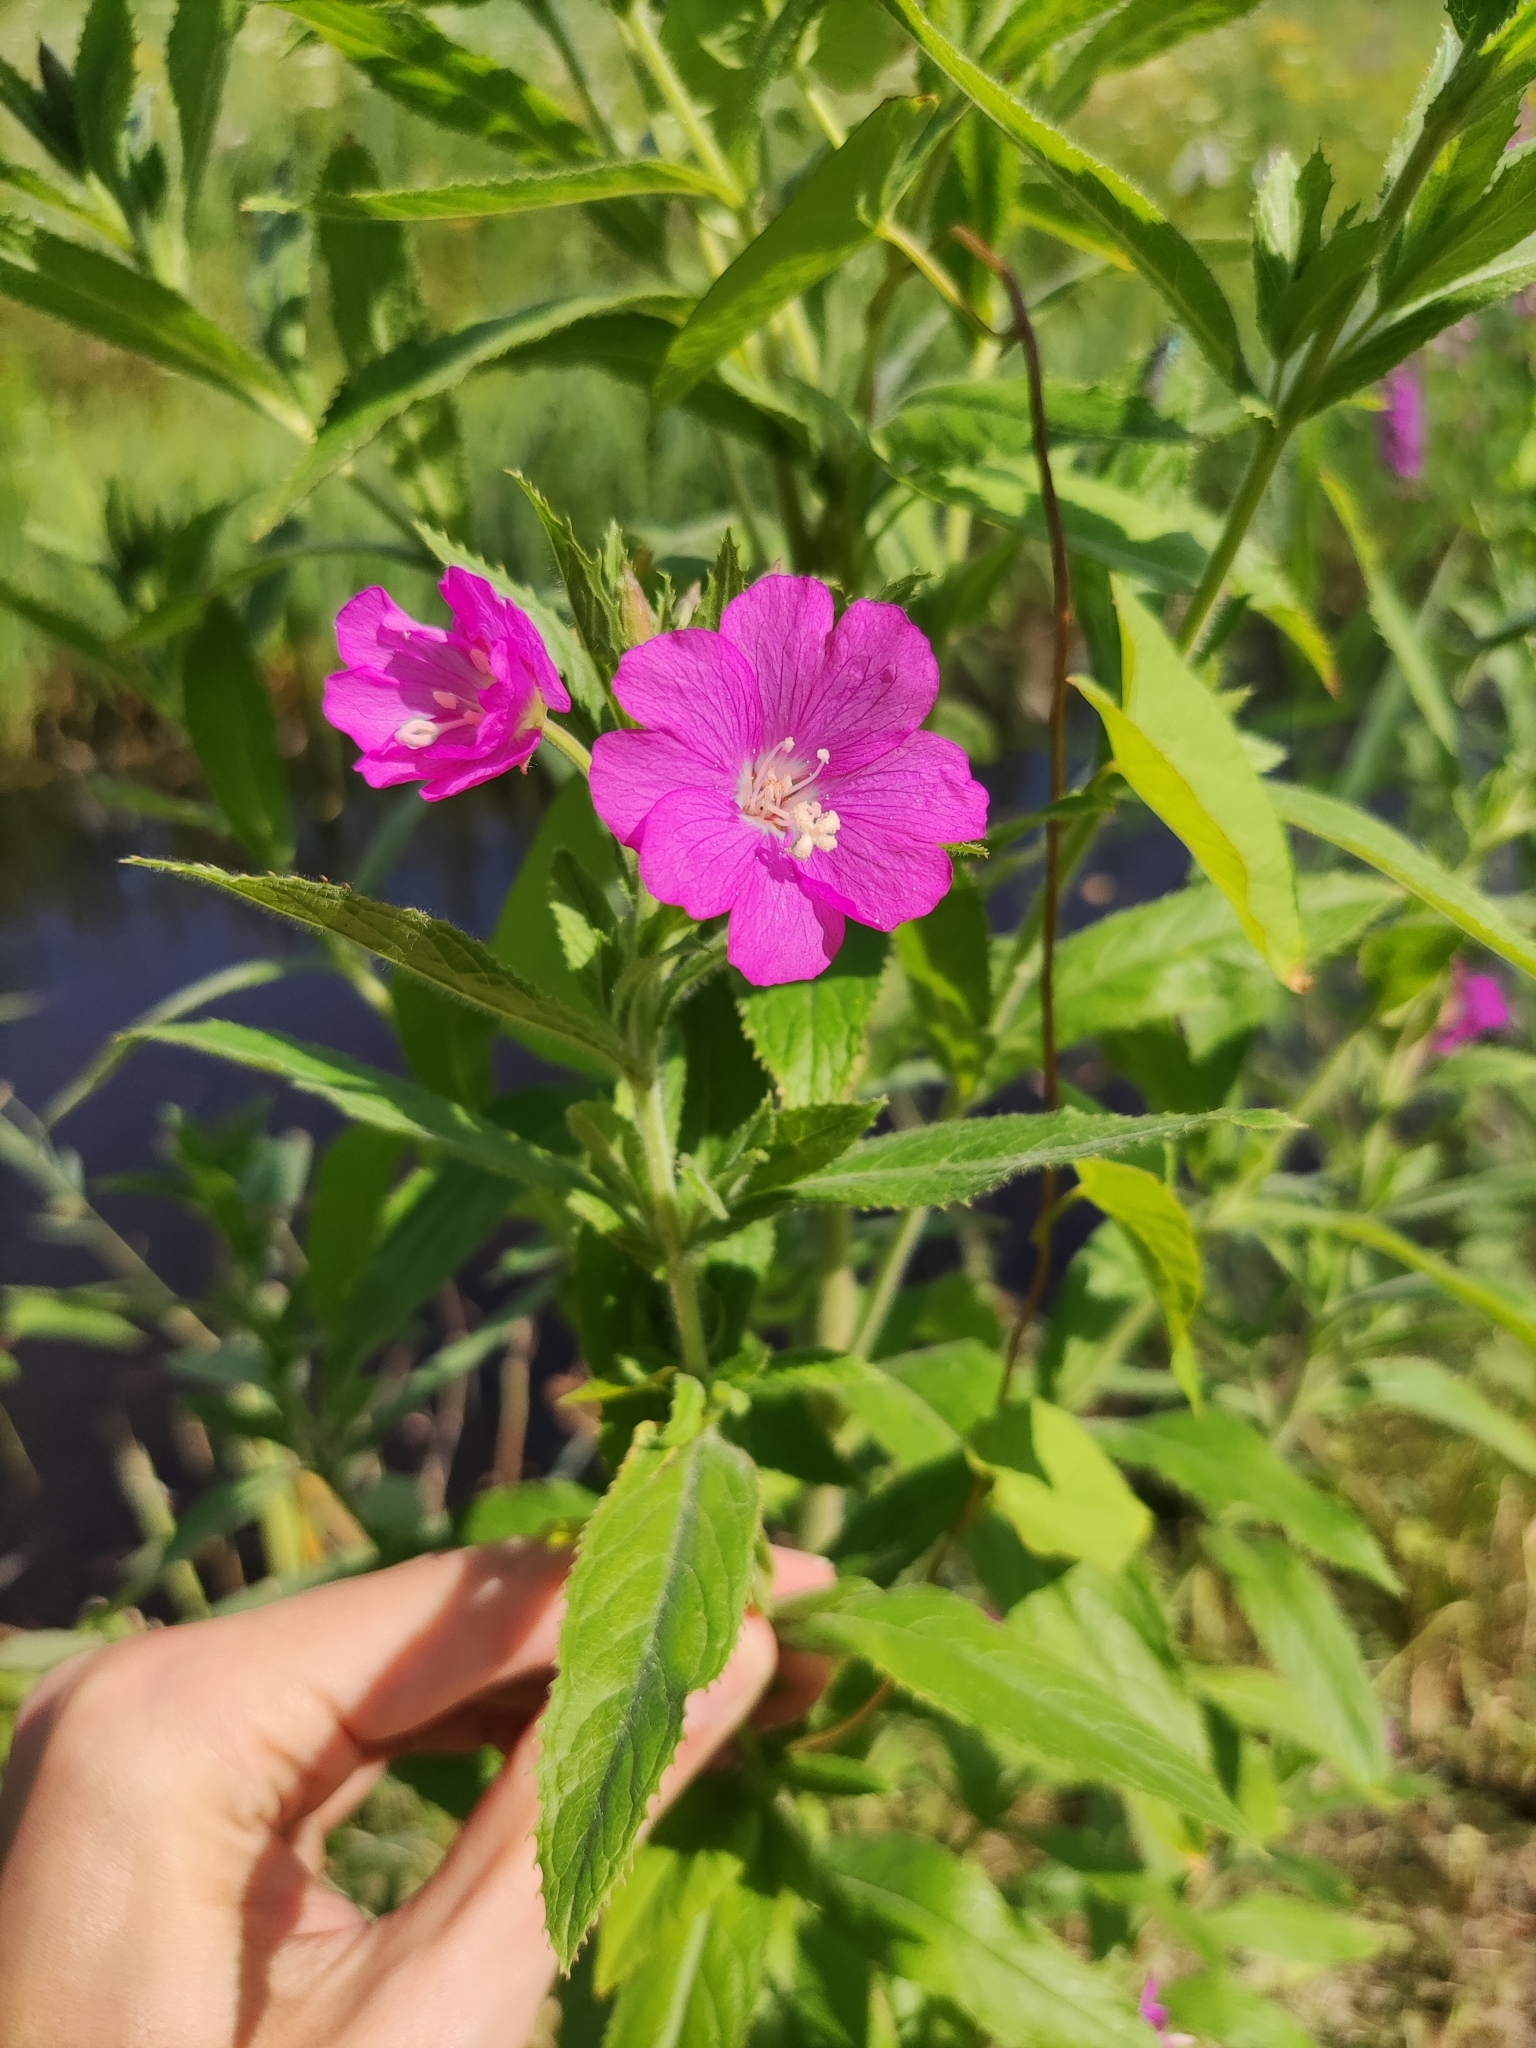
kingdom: Plantae
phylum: Tracheophyta
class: Magnoliopsida
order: Myrtales
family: Onagraceae
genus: Epilobium
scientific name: Epilobium hirsutum
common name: Great willowherb
